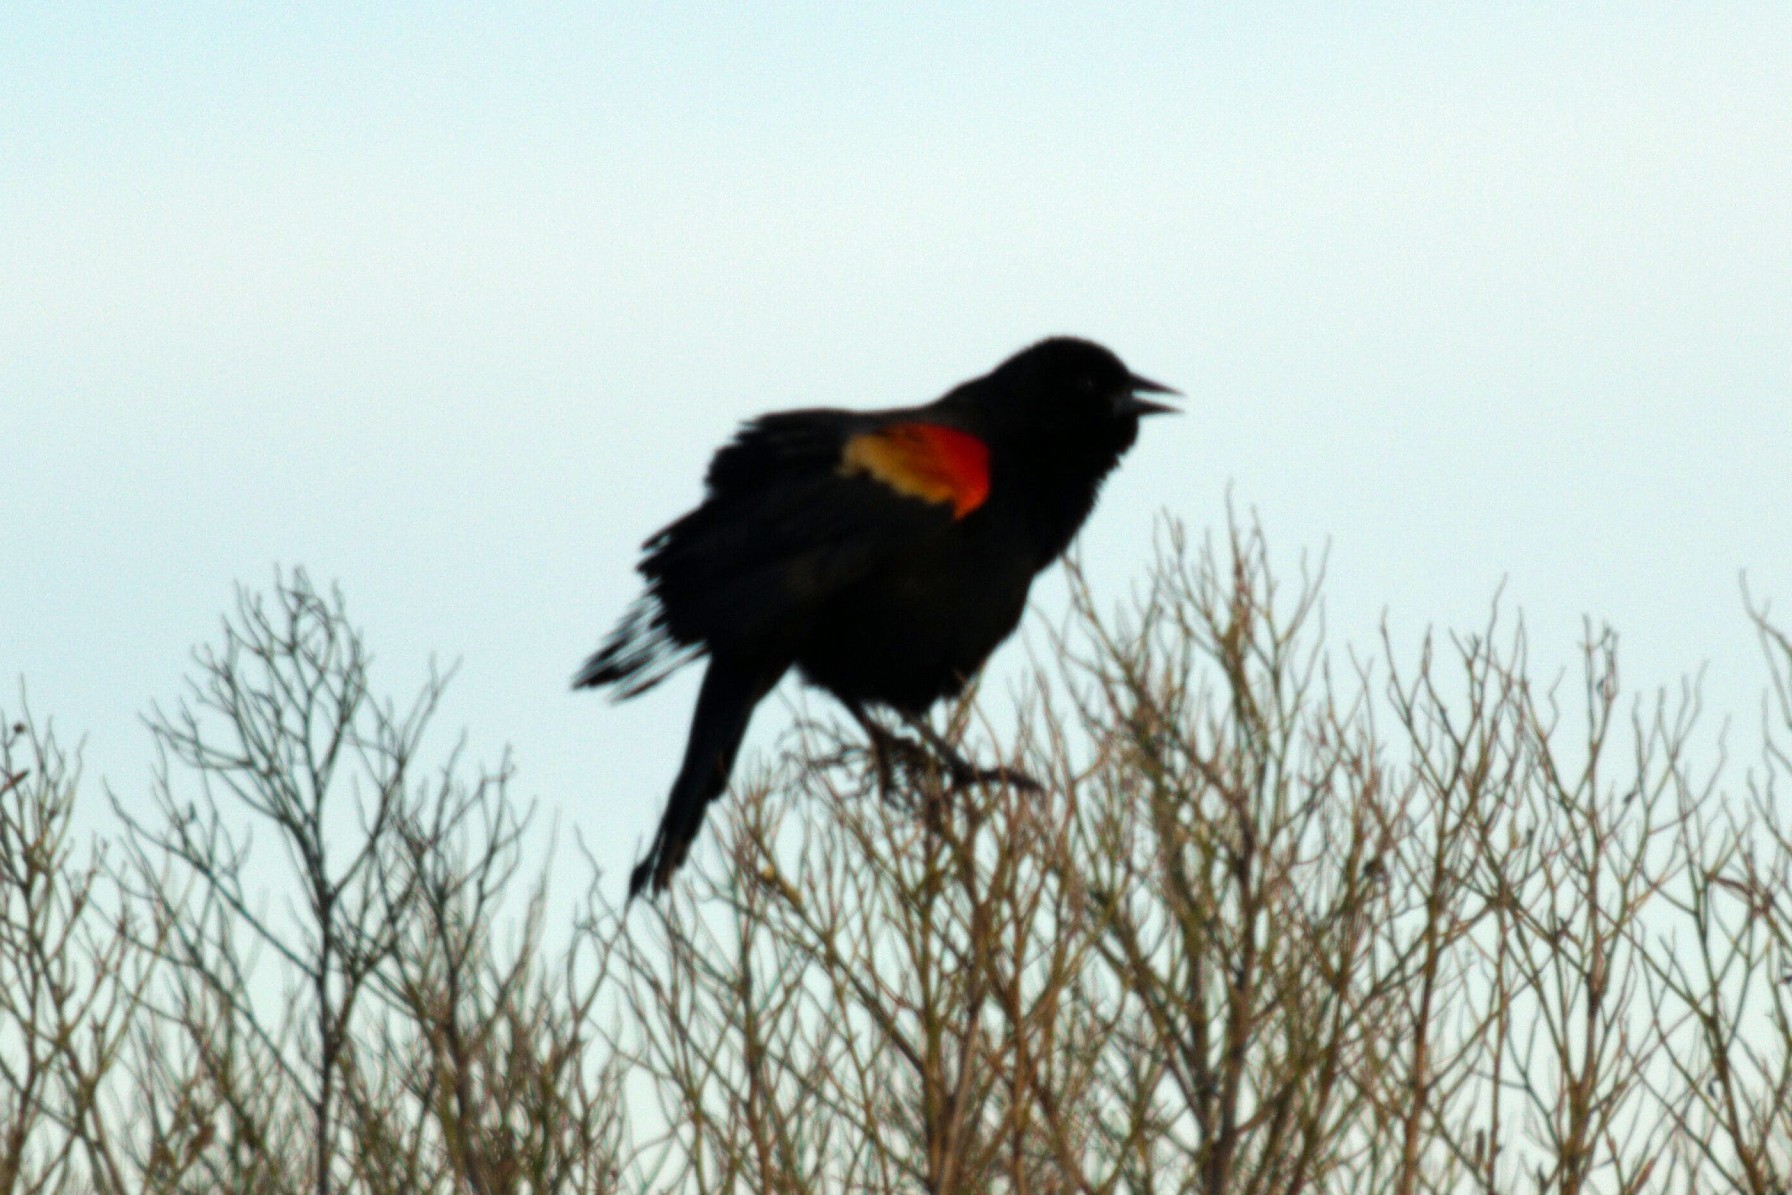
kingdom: Animalia
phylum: Chordata
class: Aves
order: Passeriformes
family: Icteridae
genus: Agelaius
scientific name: Agelaius phoeniceus
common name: Red-winged blackbird
